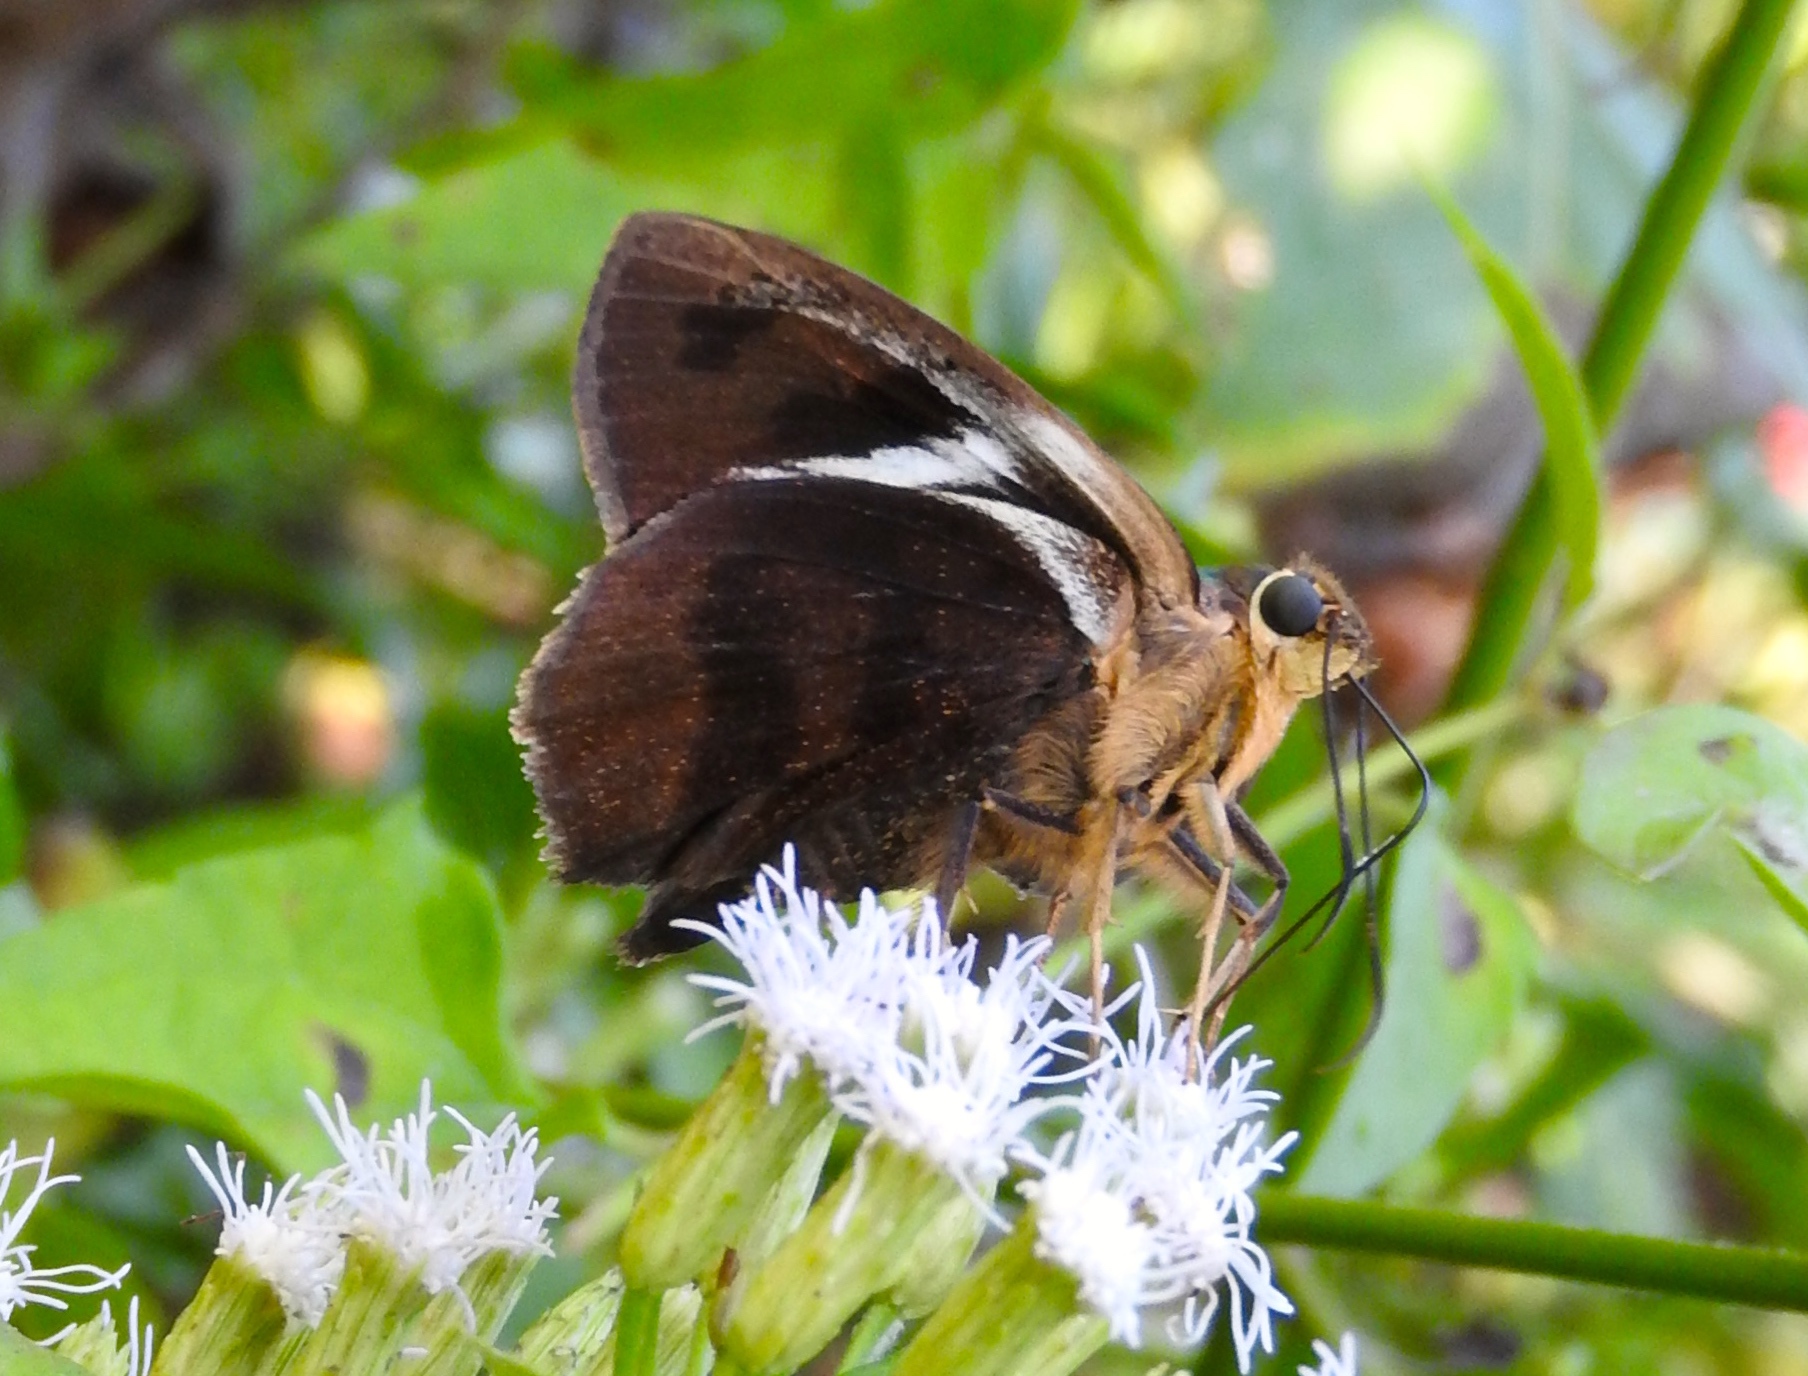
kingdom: Animalia
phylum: Arthropoda
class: Insecta
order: Lepidoptera
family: Hesperiidae
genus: Astraptes
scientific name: Astraptes
